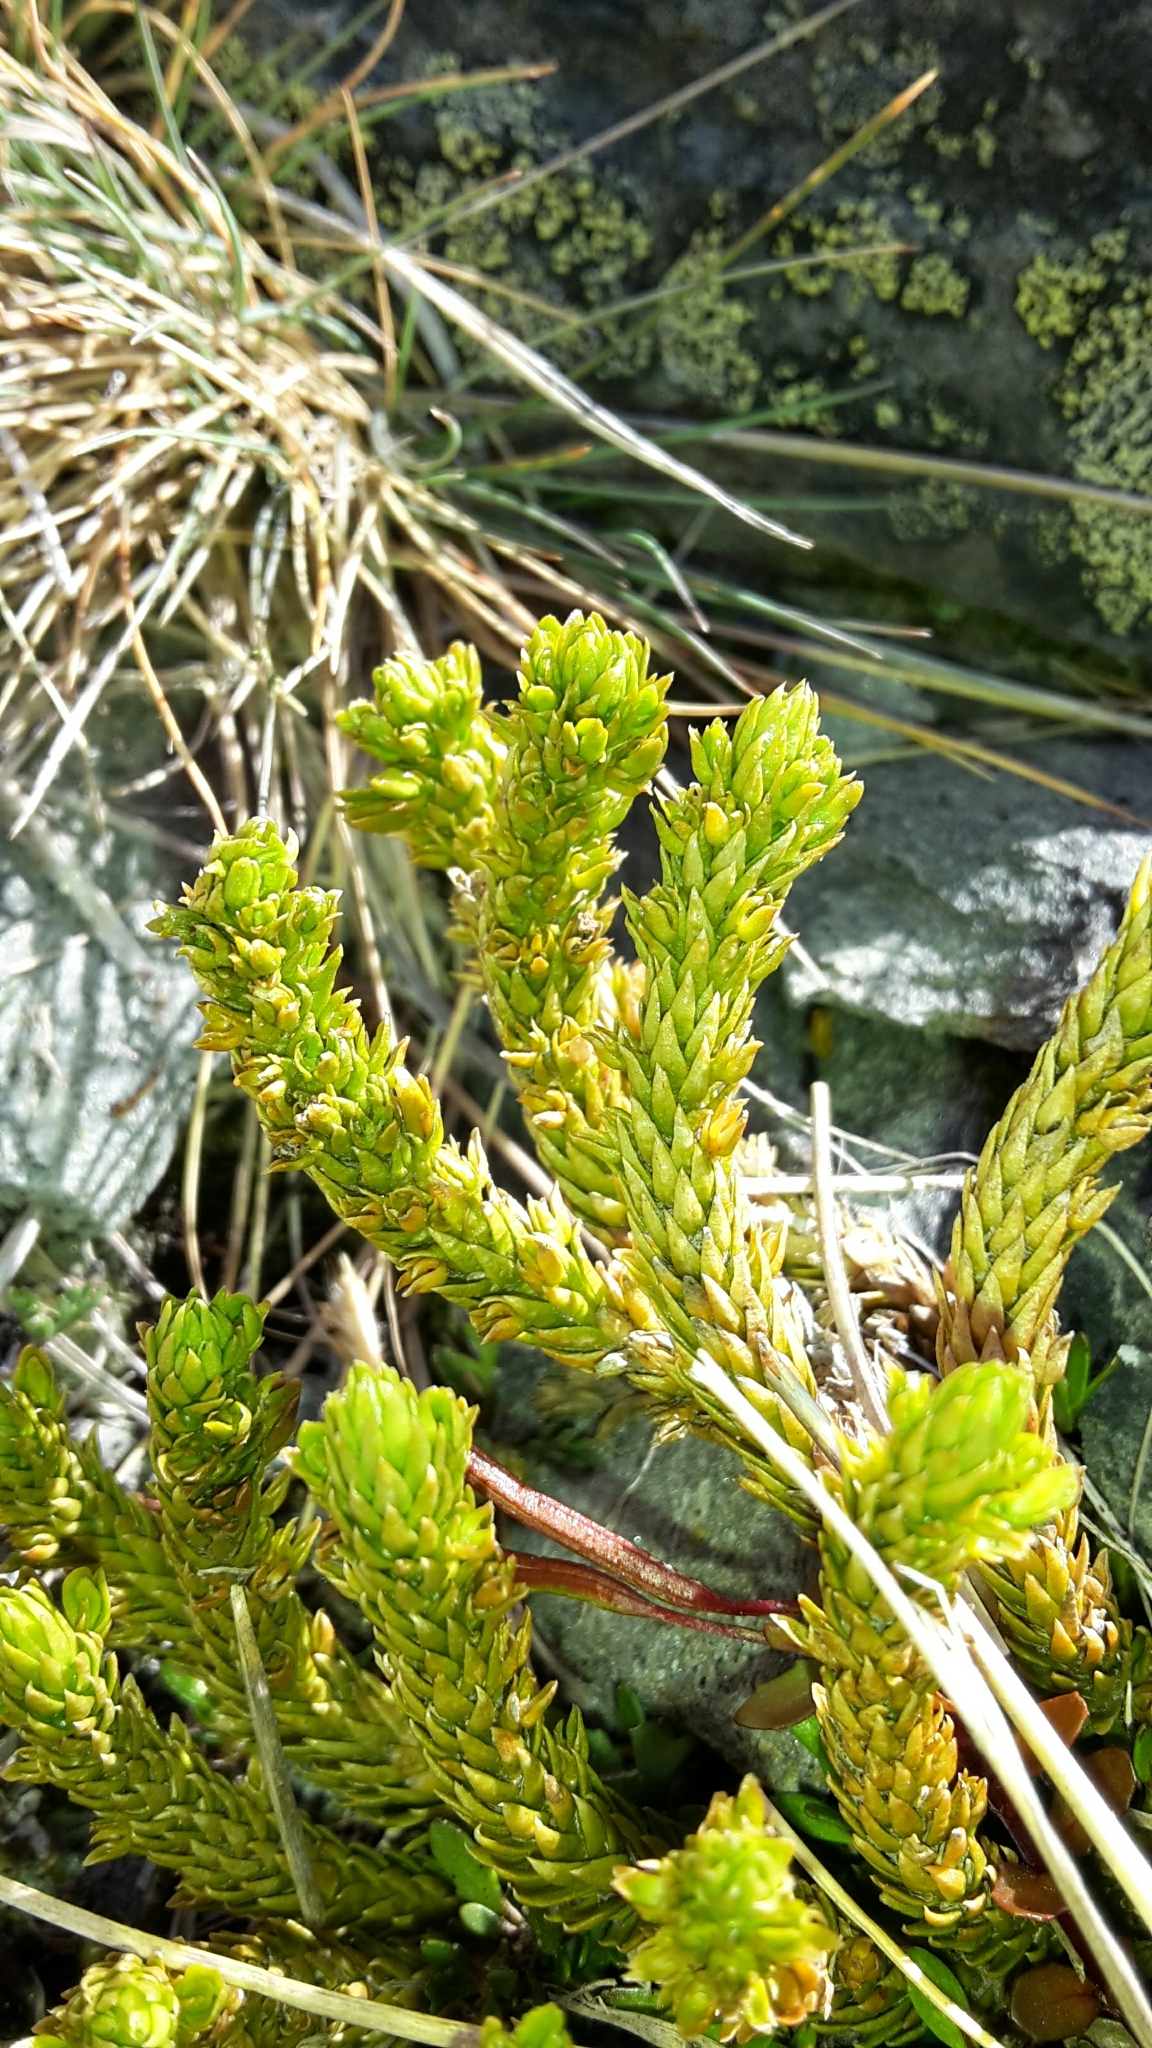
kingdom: Plantae
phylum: Tracheophyta
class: Lycopodiopsida
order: Lycopodiales
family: Lycopodiaceae
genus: Huperzia
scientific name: Huperzia australiana
